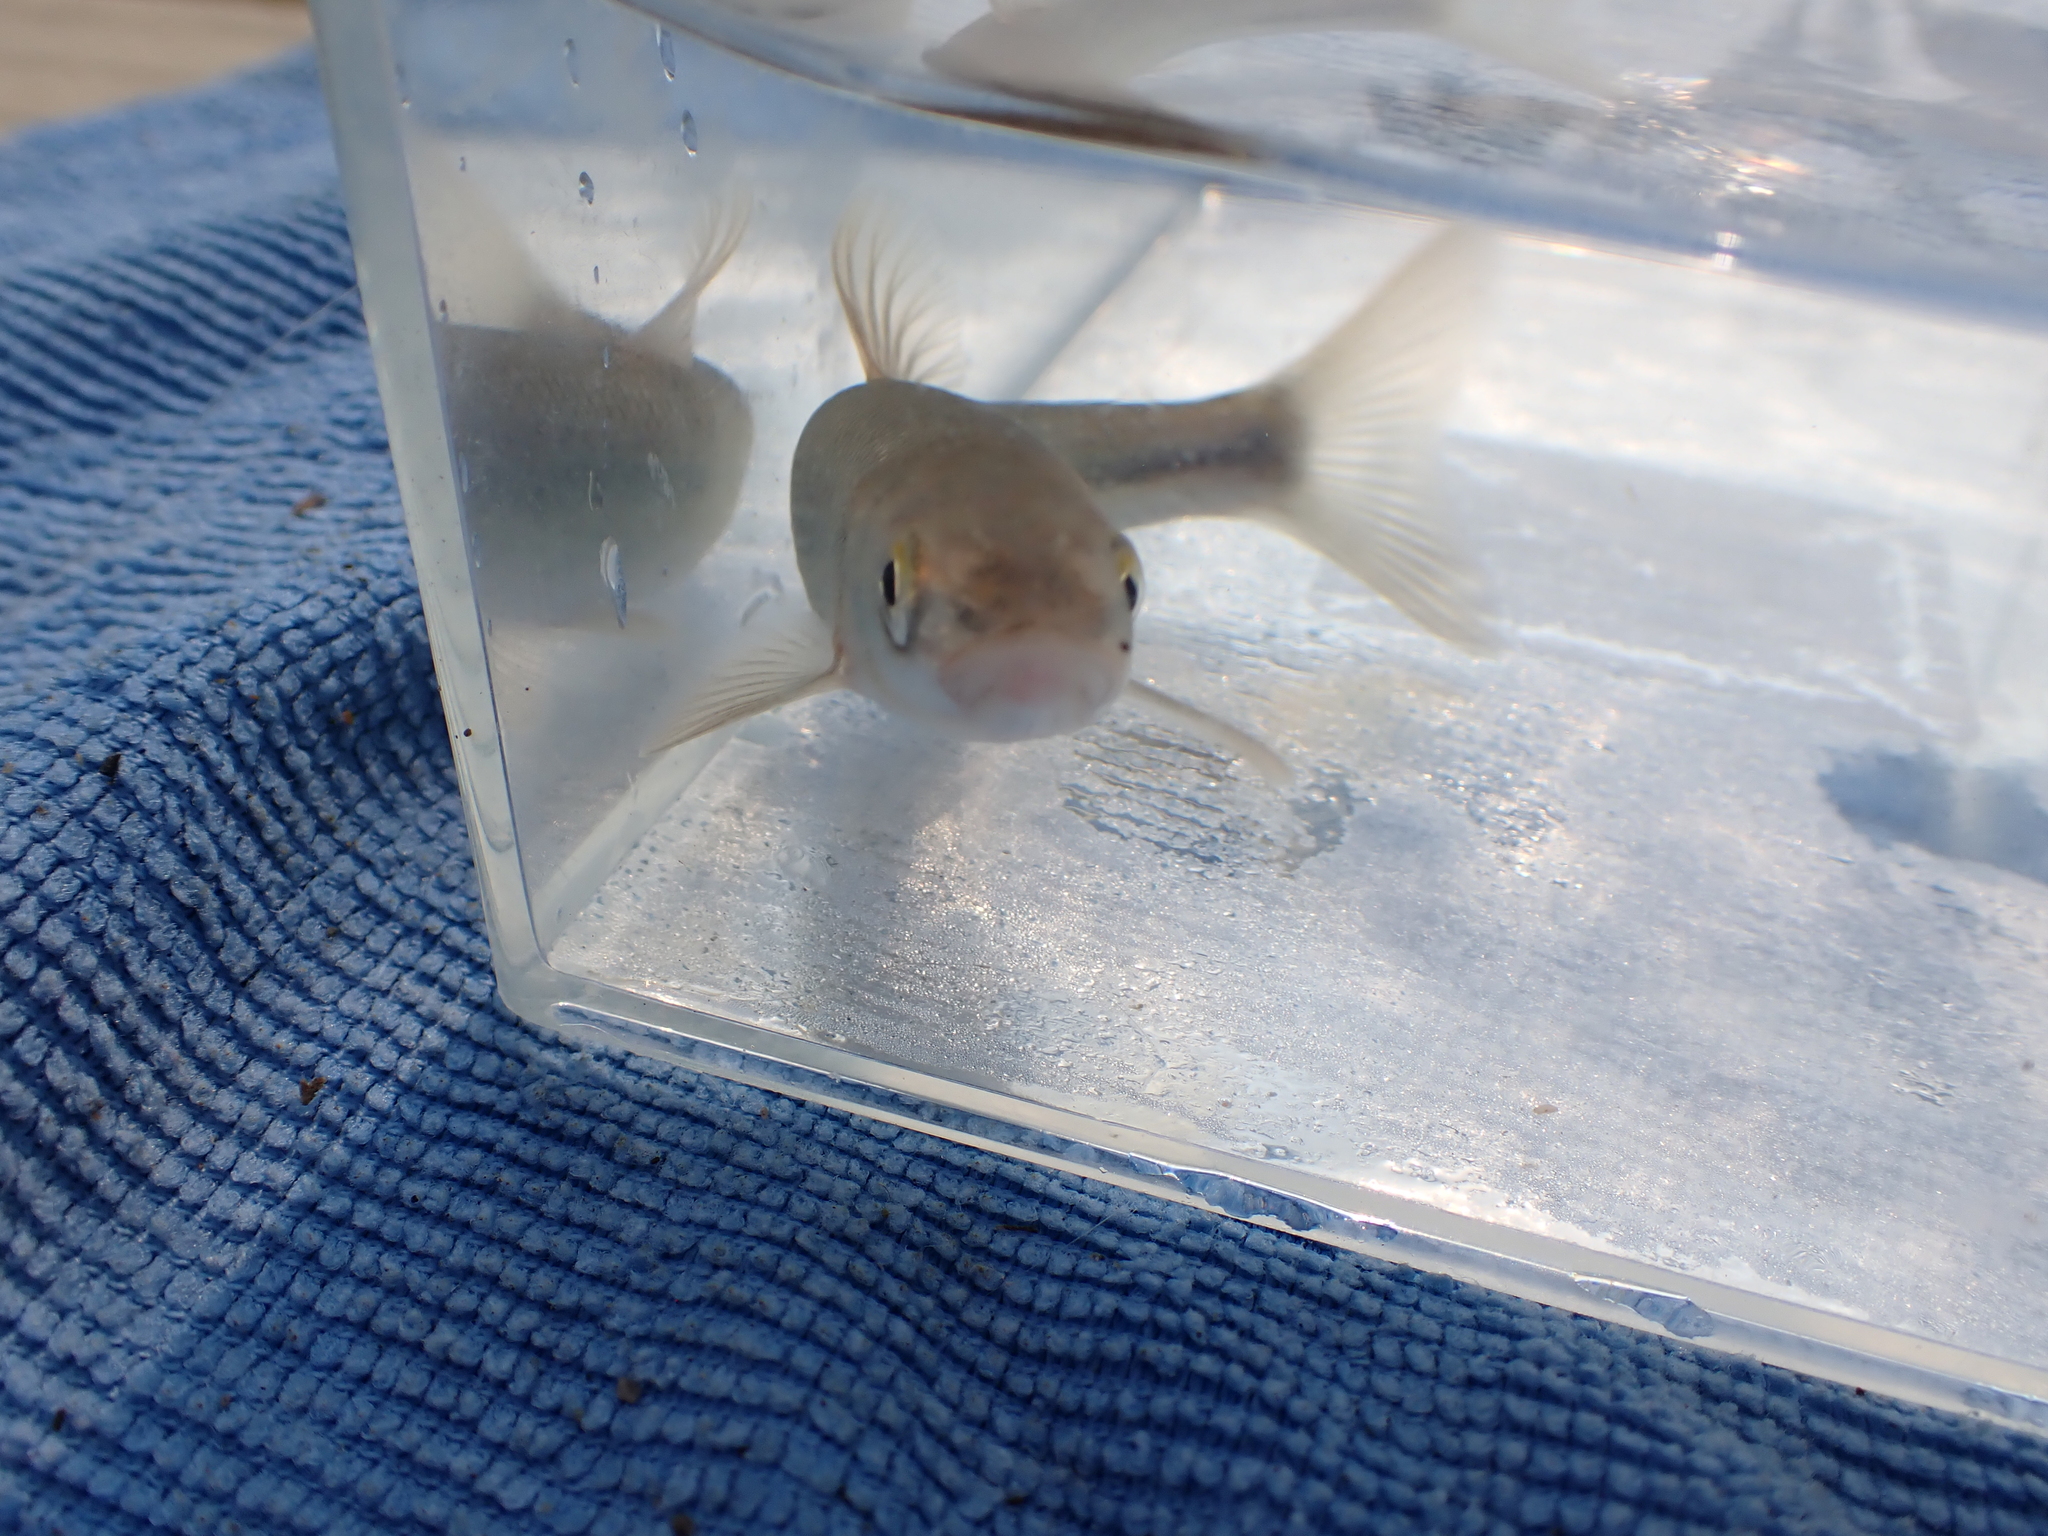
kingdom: Animalia
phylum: Chordata
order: Cypriniformes
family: Cyprinidae
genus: Couesius
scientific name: Couesius plumbeus
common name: Lake chub
